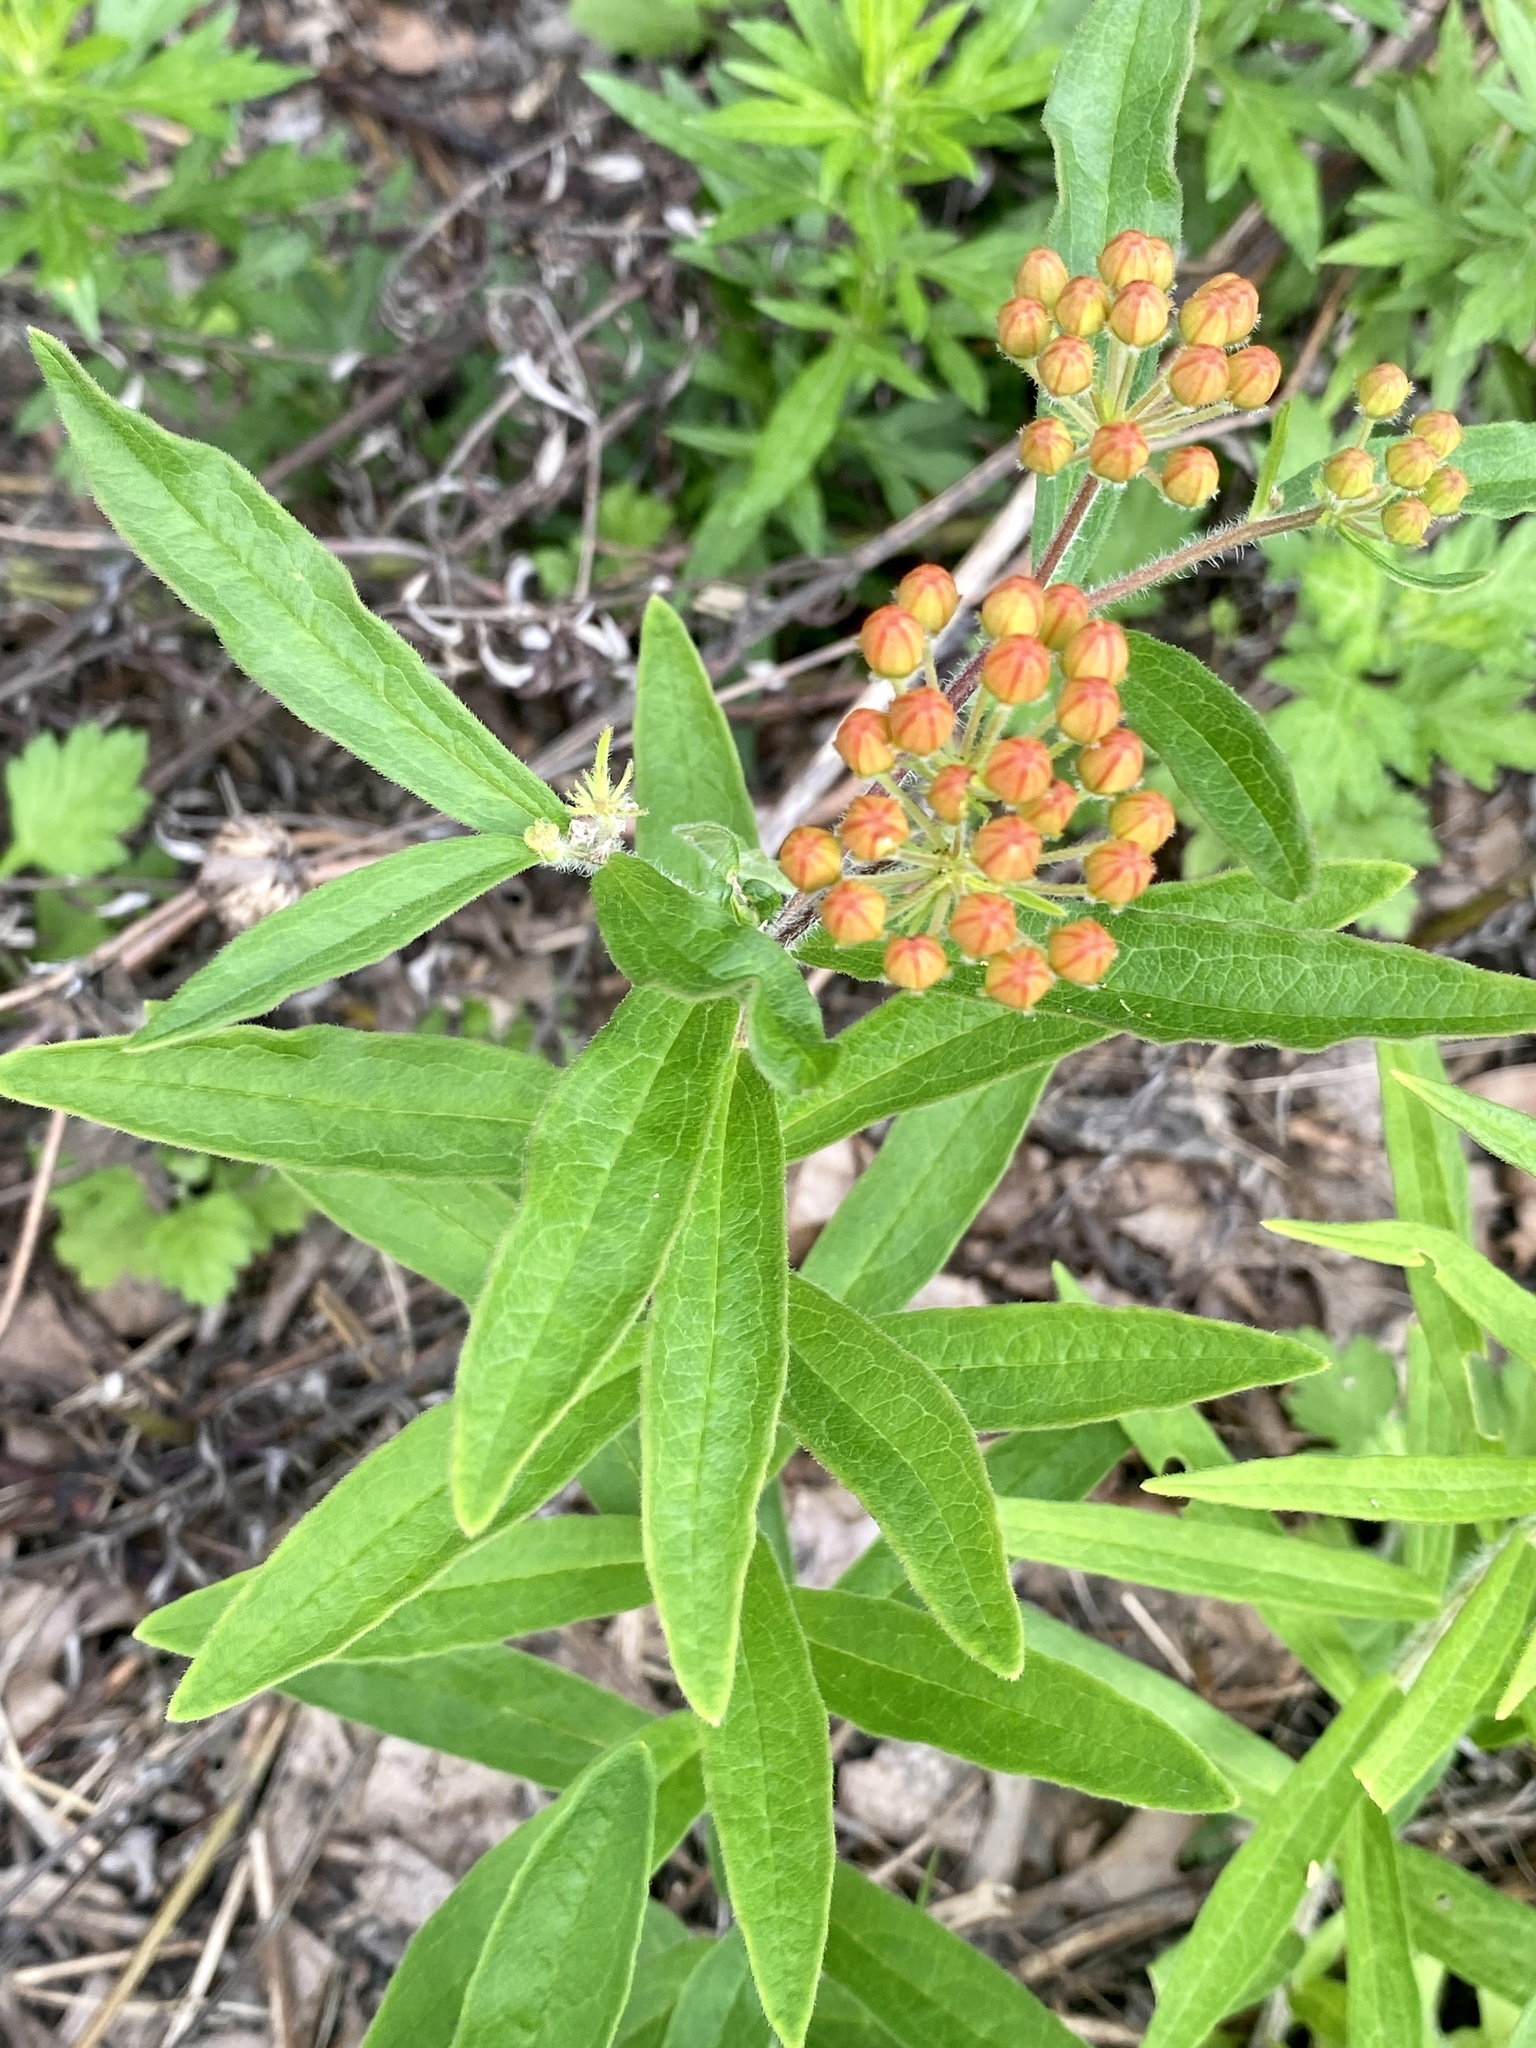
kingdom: Plantae
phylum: Tracheophyta
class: Magnoliopsida
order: Gentianales
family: Apocynaceae
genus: Asclepias
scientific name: Asclepias tuberosa
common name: Butterfly milkweed
